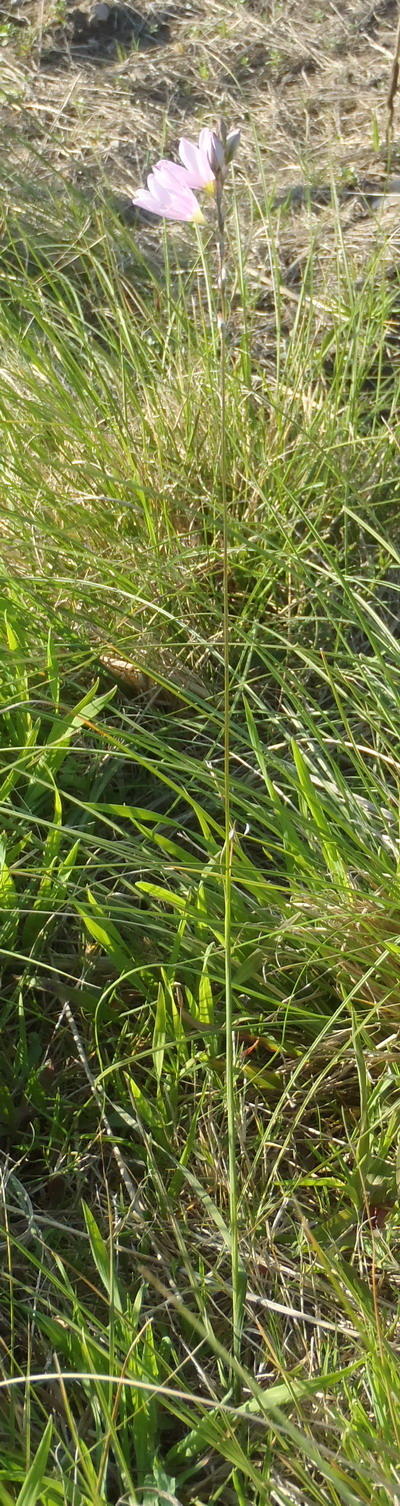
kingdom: Plantae
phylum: Tracheophyta
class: Liliopsida
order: Asparagales
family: Iridaceae
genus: Ixia
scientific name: Ixia orientalis
